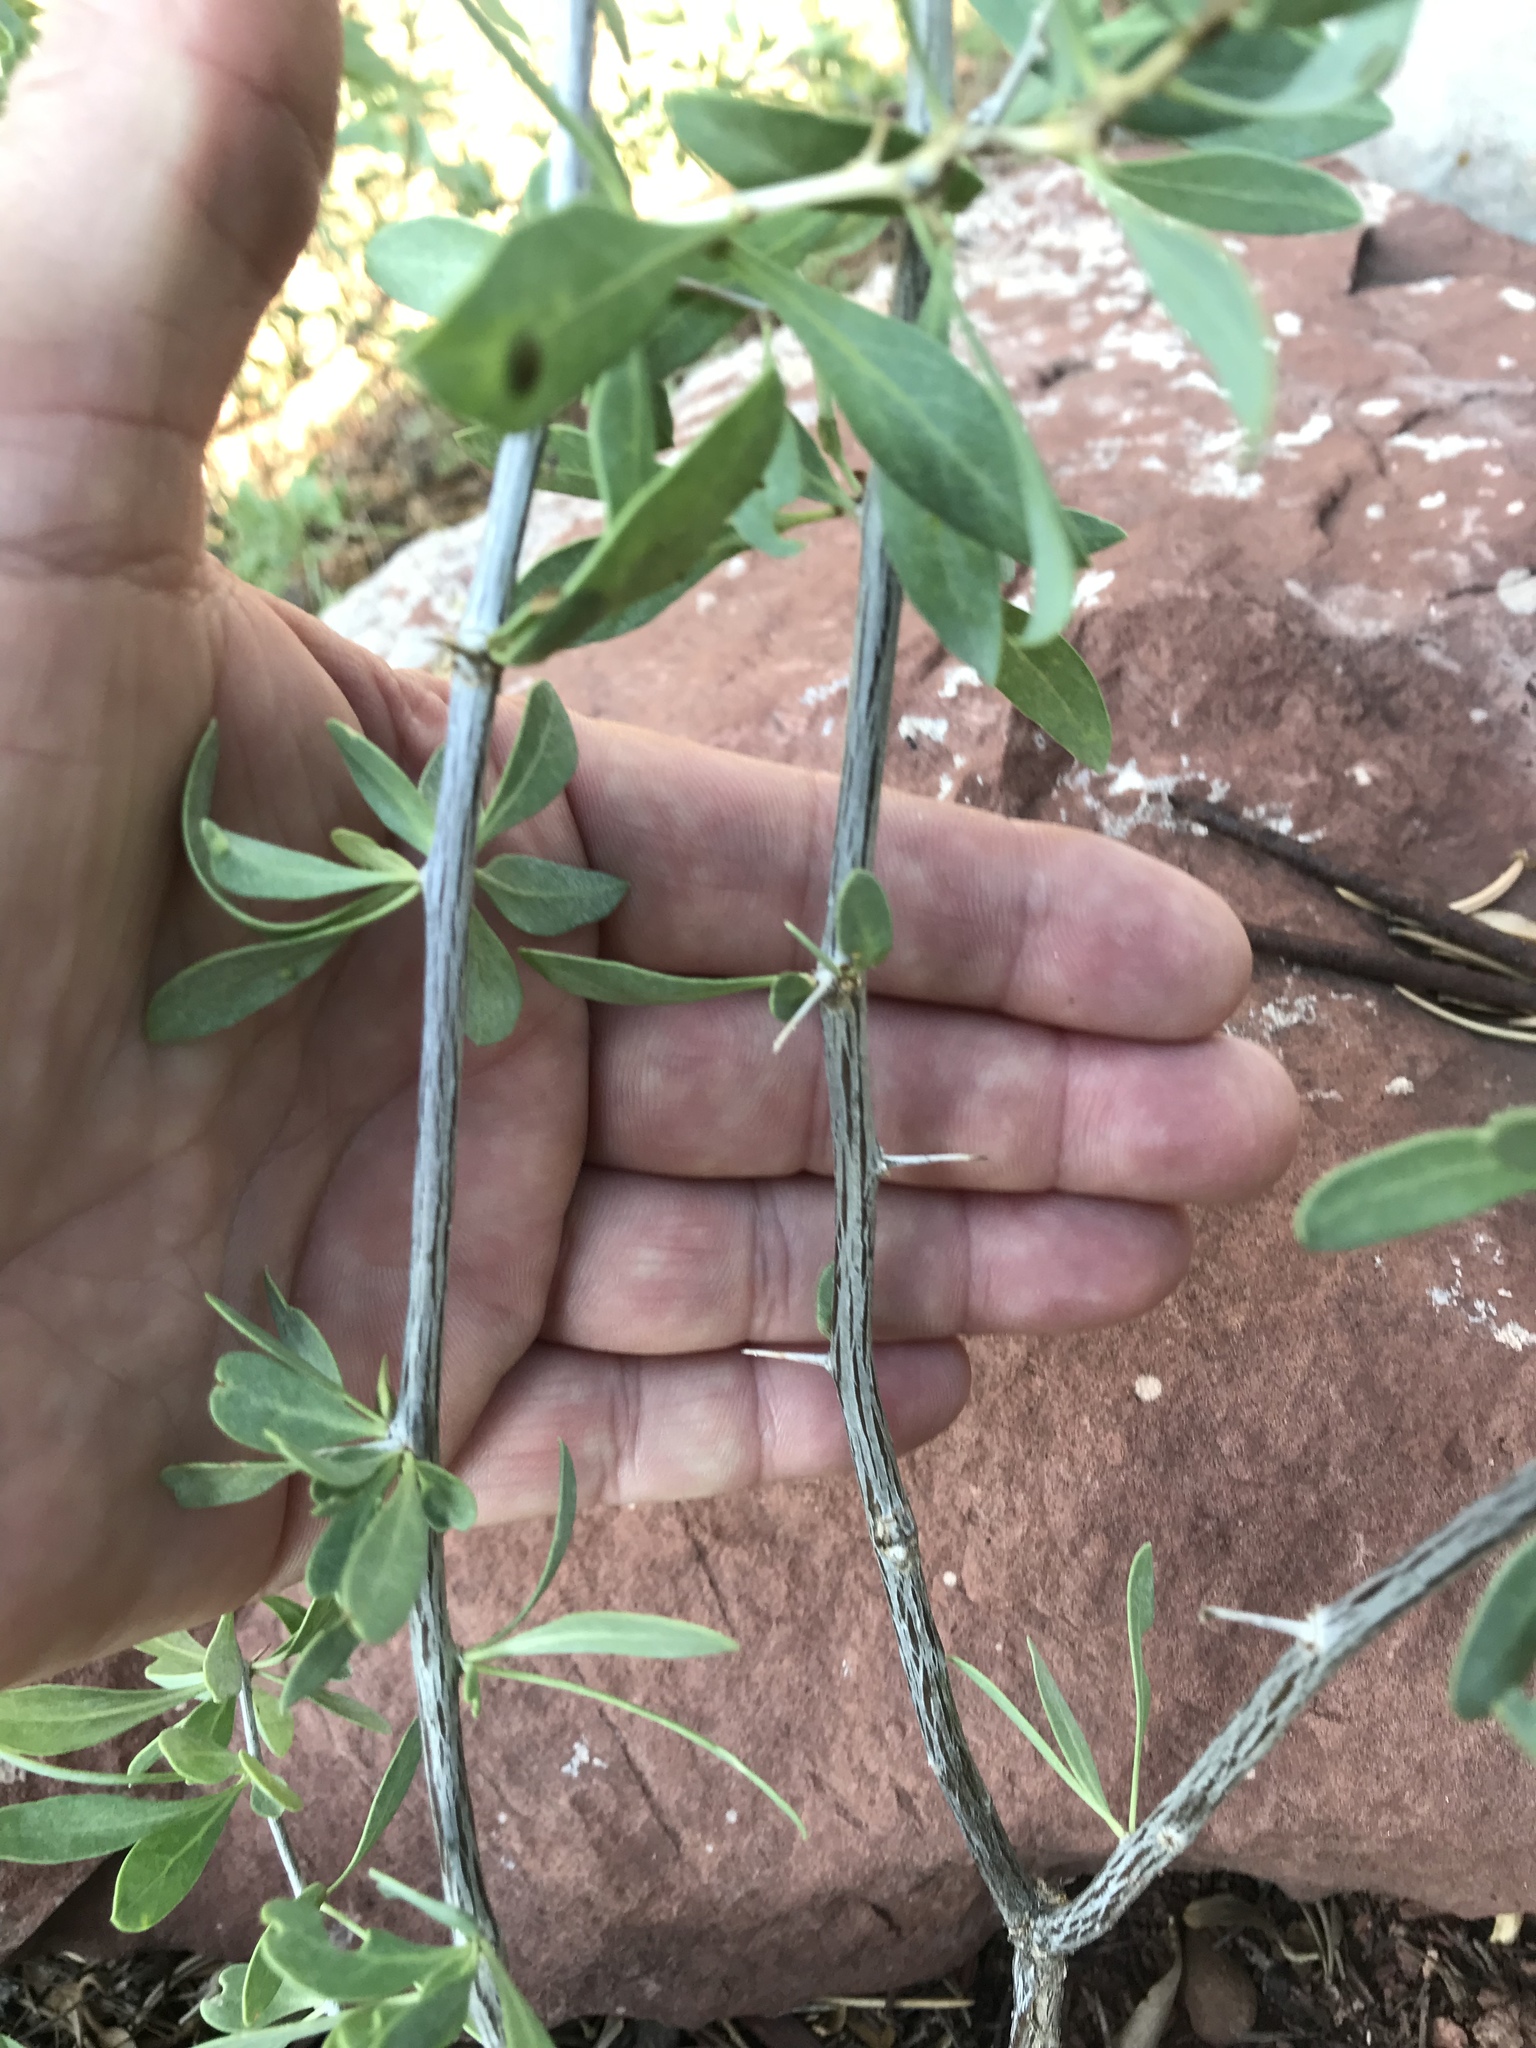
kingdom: Plantae
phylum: Tracheophyta
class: Magnoliopsida
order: Solanales
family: Solanaceae
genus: Lycium
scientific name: Lycium pallidum
